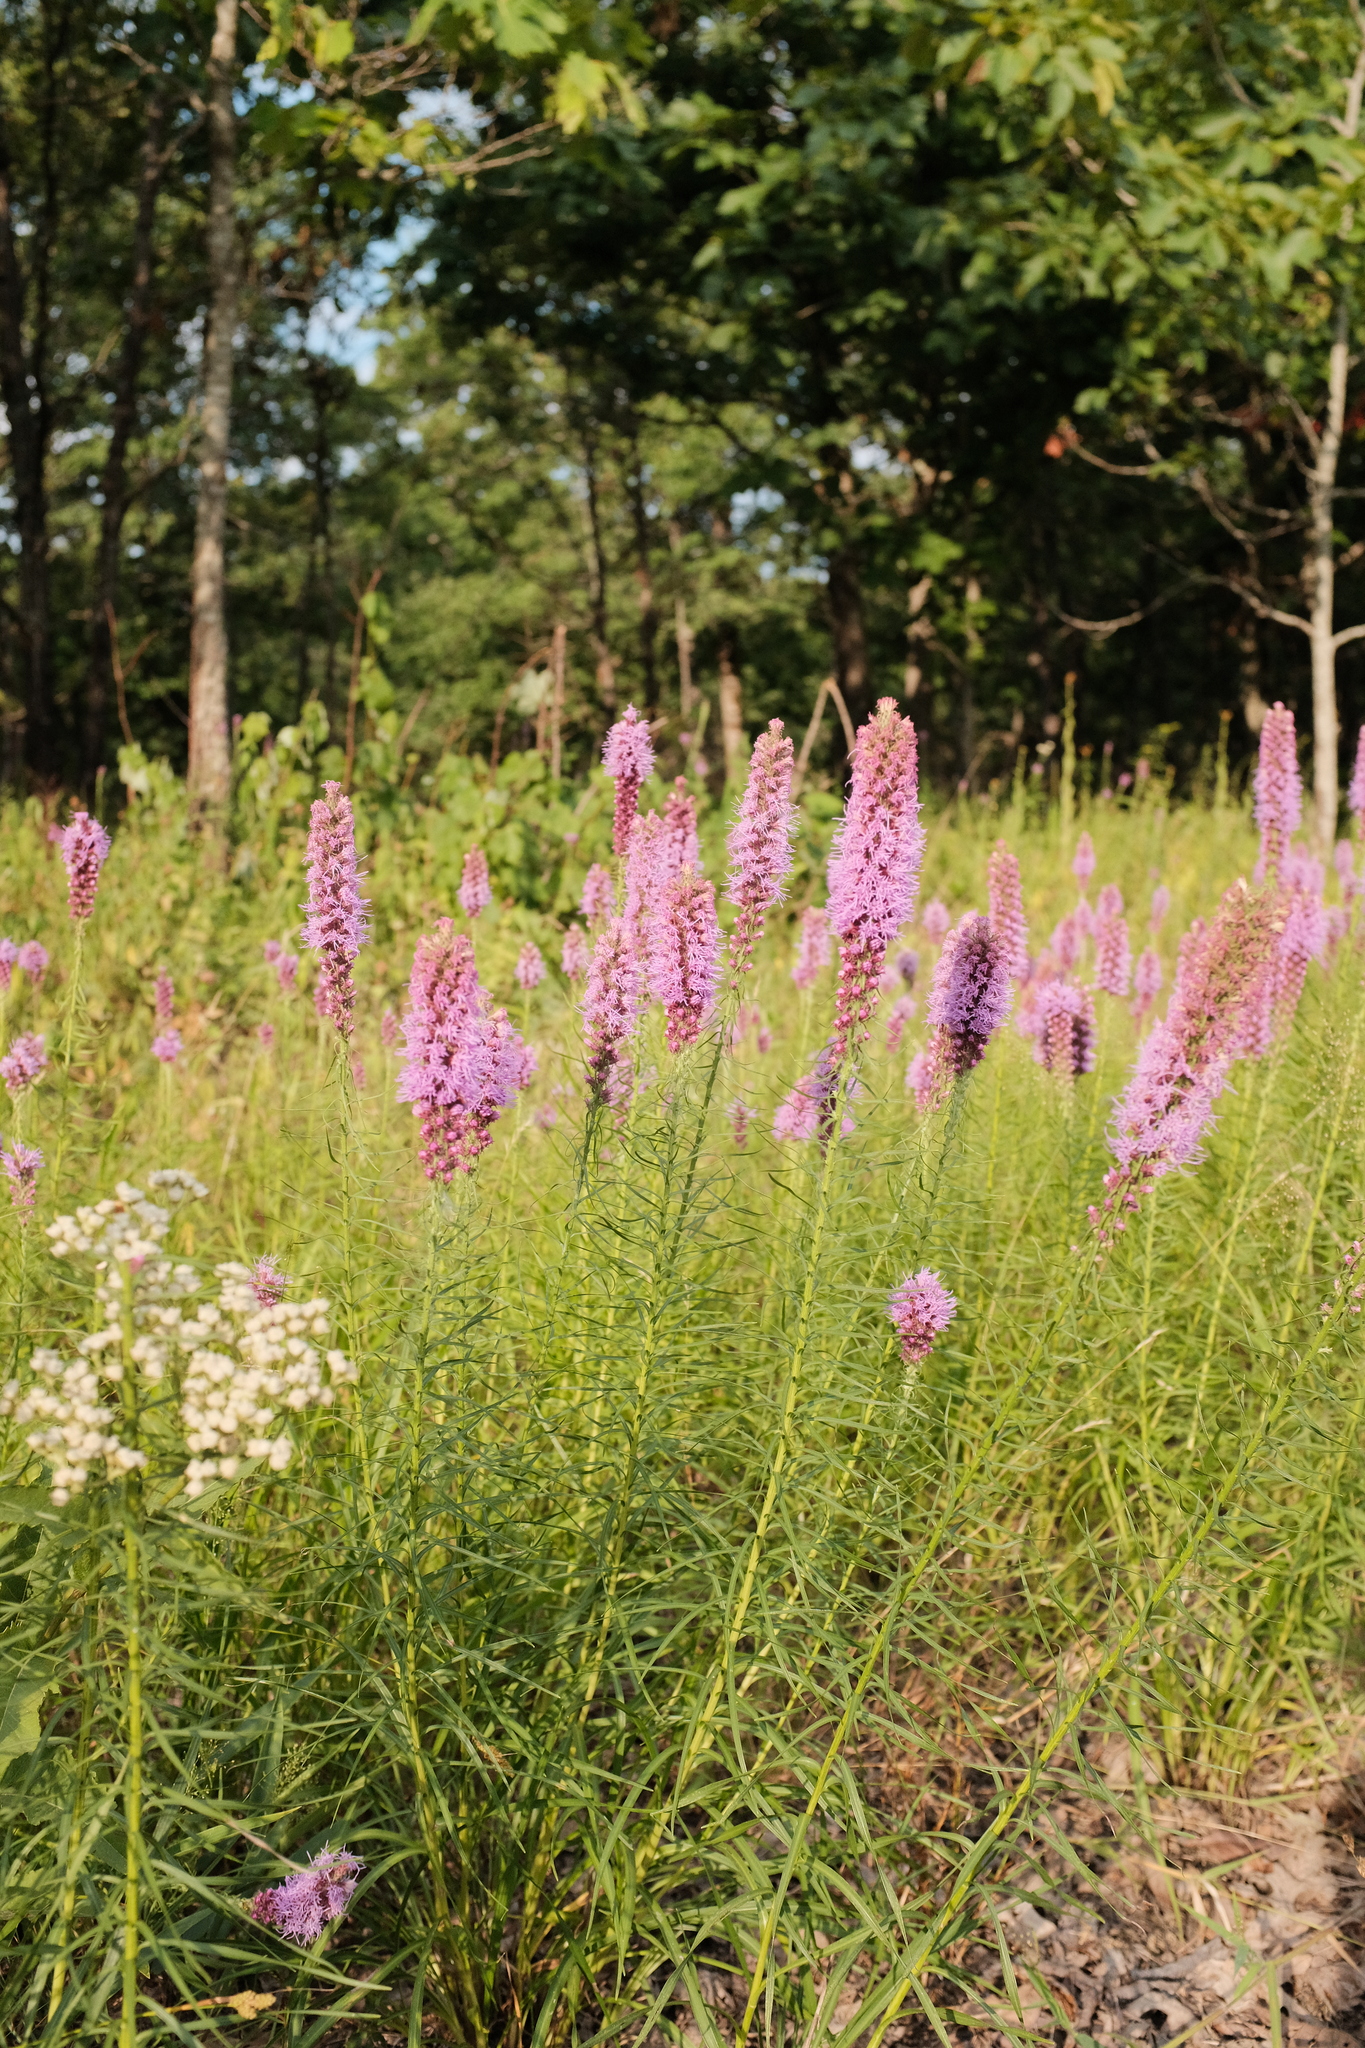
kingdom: Plantae
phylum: Tracheophyta
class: Magnoliopsida
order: Asterales
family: Asteraceae
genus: Liatris
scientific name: Liatris pycnostachya
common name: Cattail gayfeather
